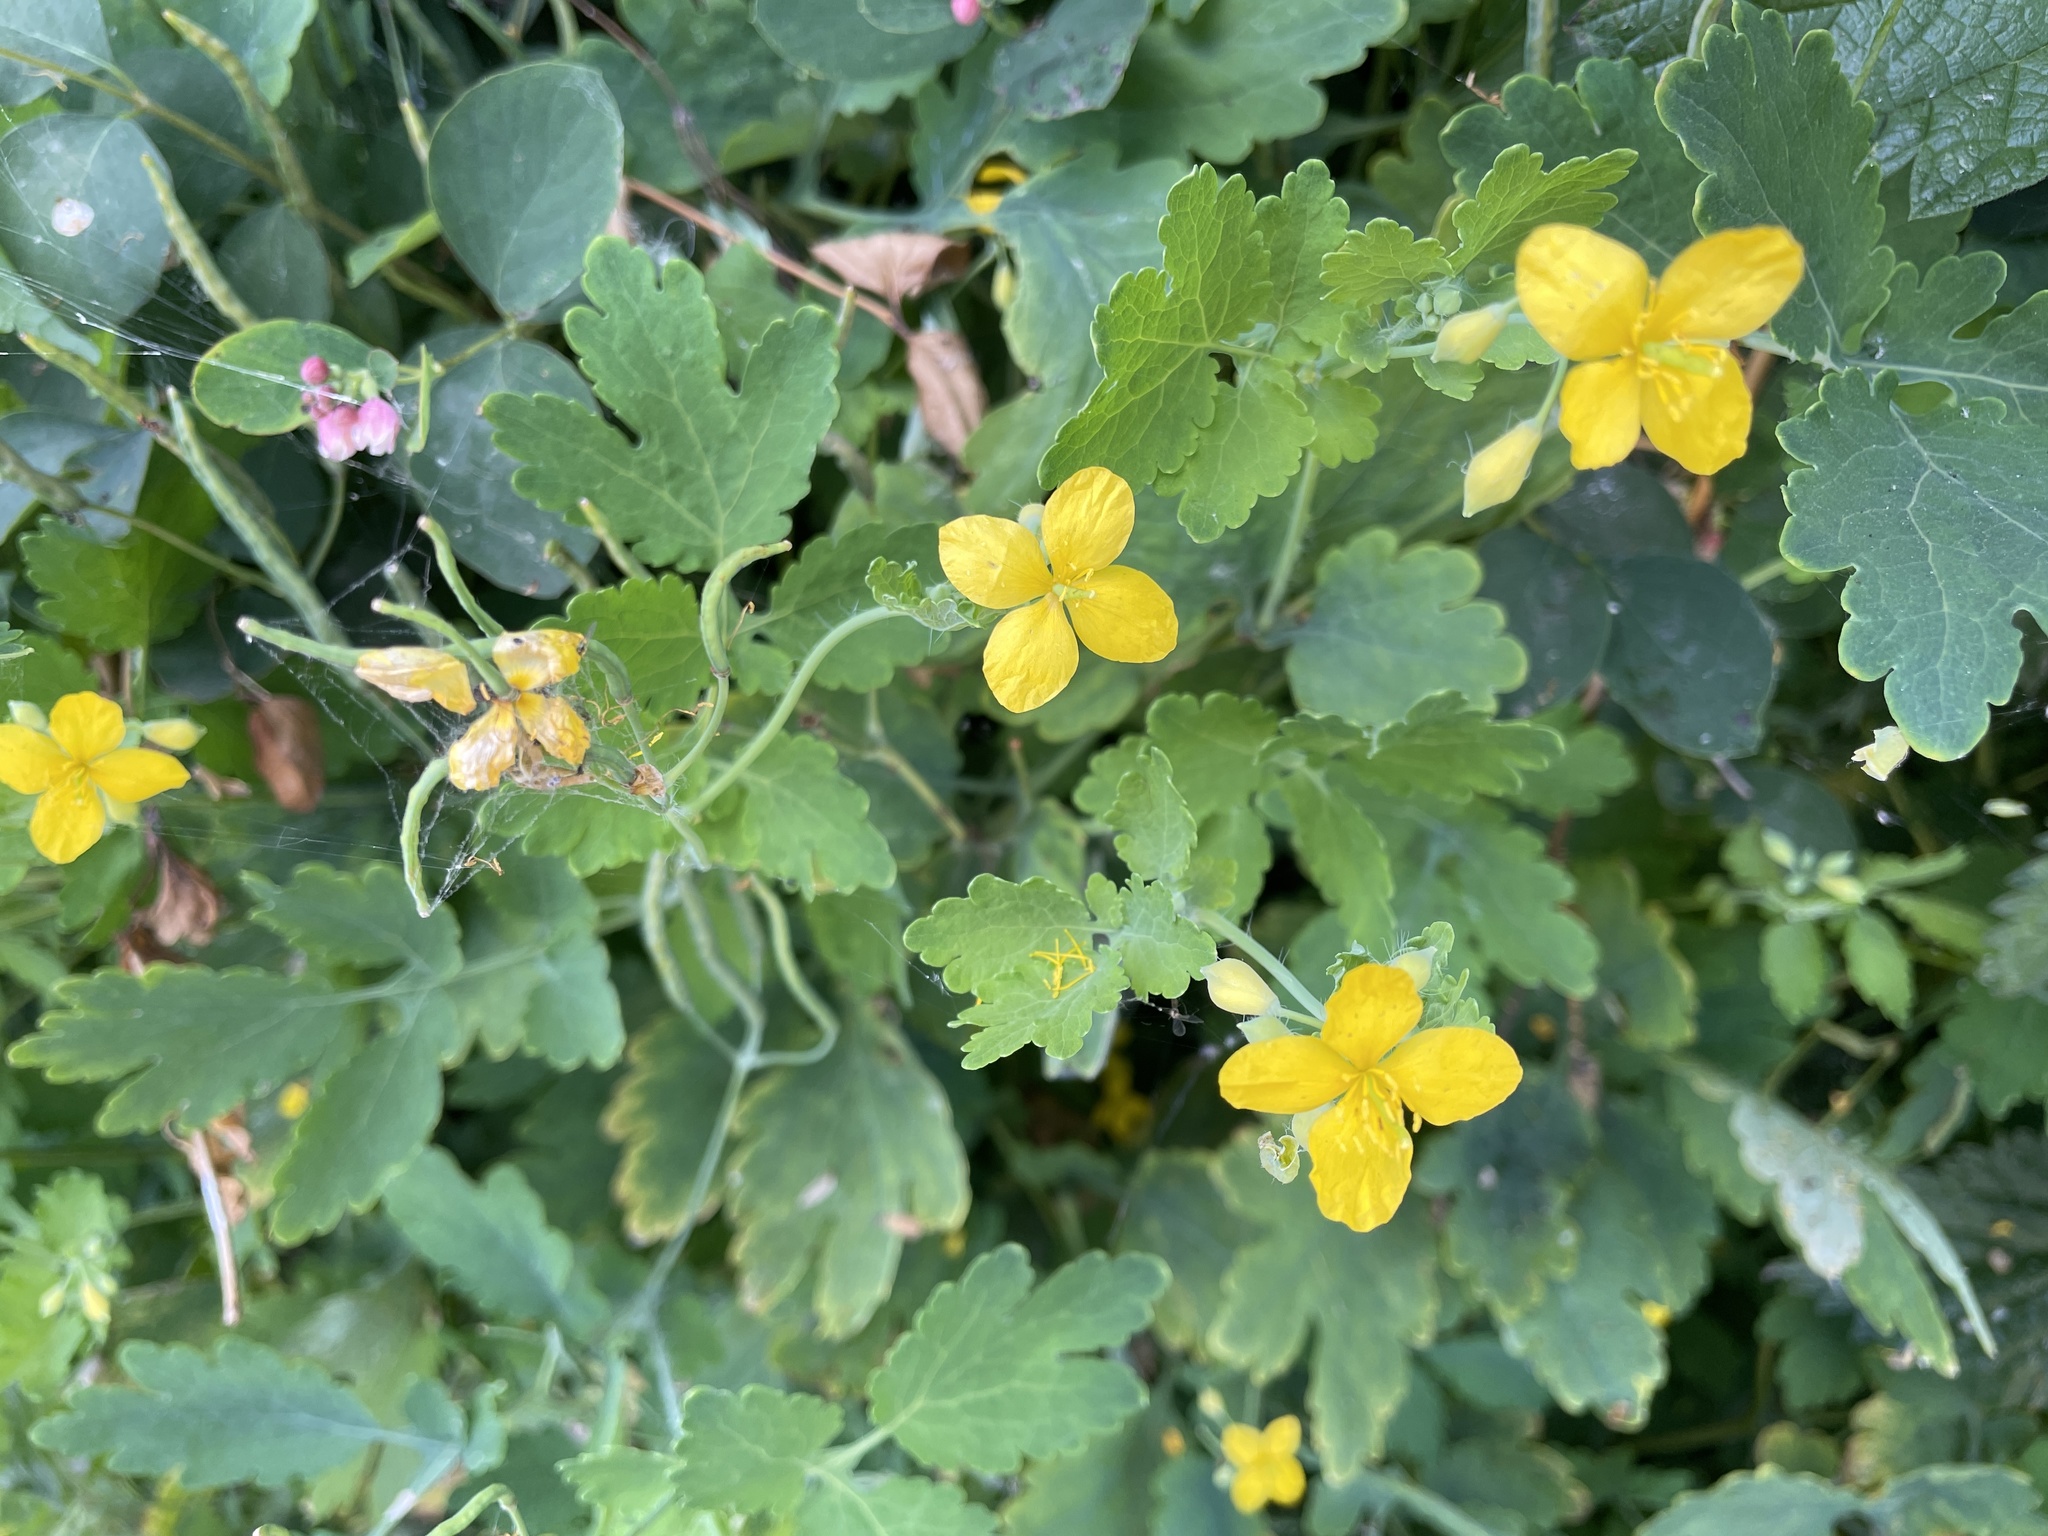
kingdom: Plantae
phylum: Tracheophyta
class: Magnoliopsida
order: Ranunculales
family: Papaveraceae
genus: Chelidonium
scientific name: Chelidonium majus
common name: Greater celandine
